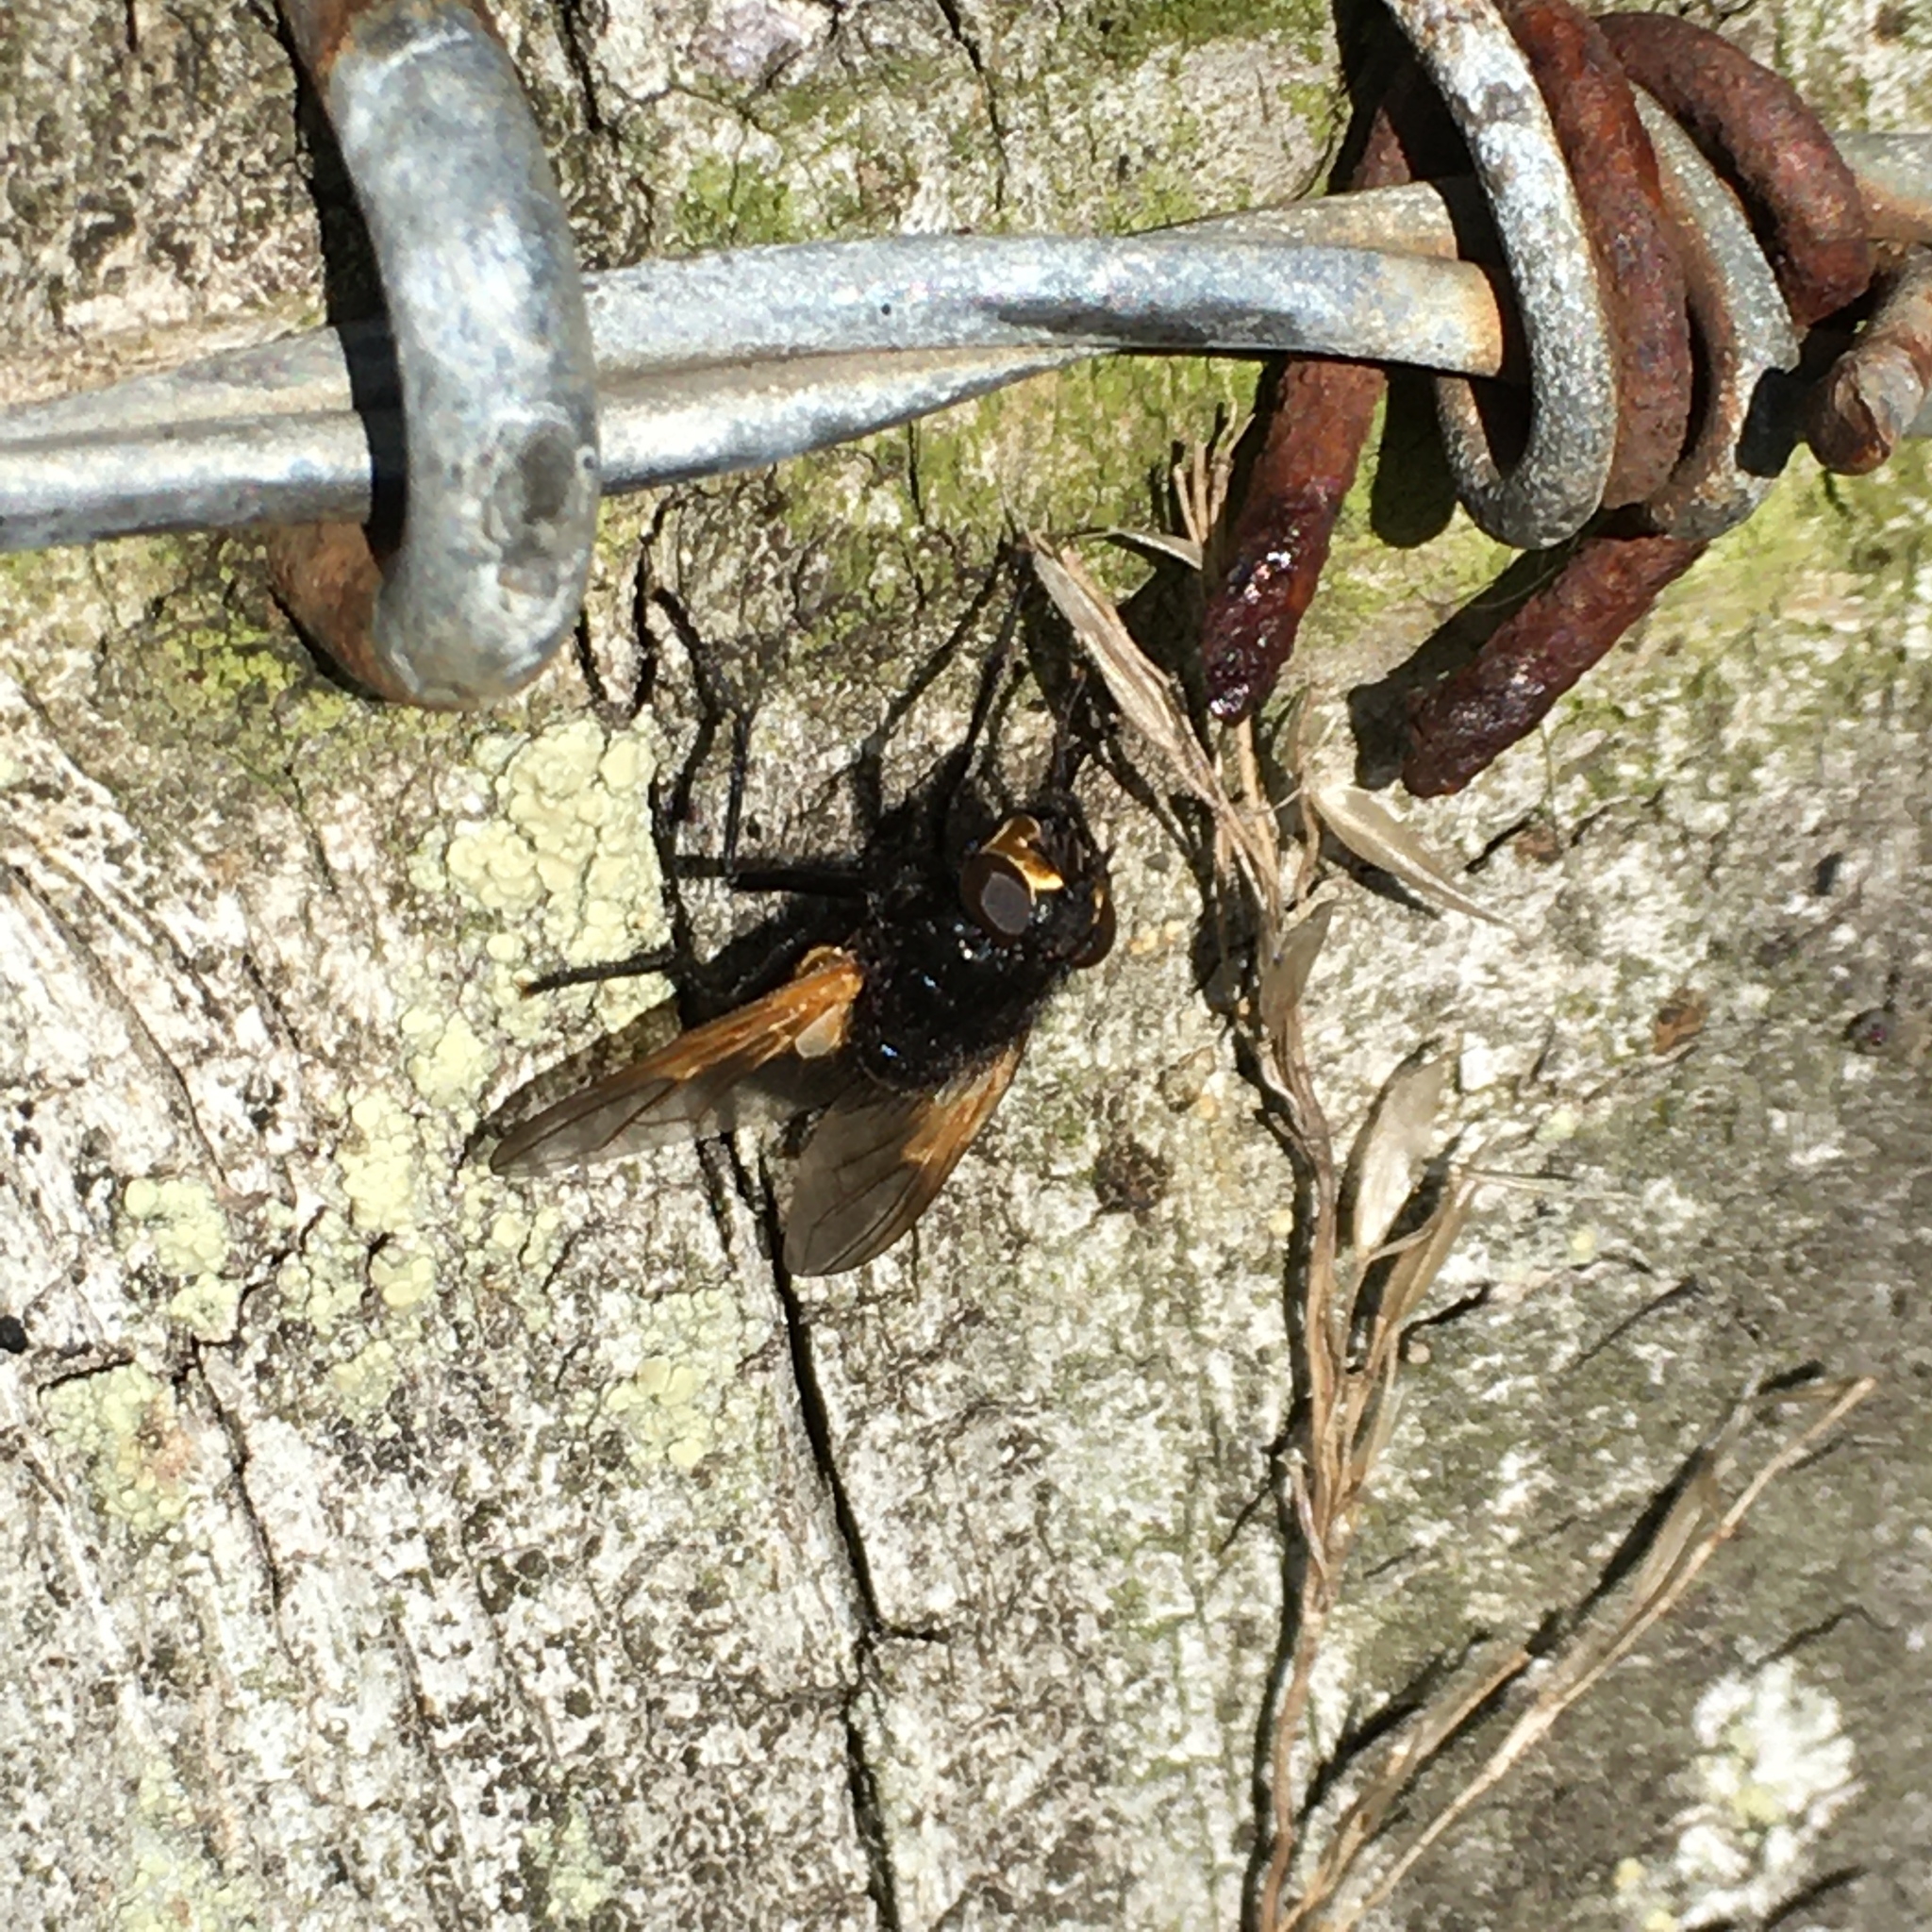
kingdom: Animalia
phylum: Arthropoda
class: Insecta
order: Diptera
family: Muscidae
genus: Mesembrina
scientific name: Mesembrina meridiana
